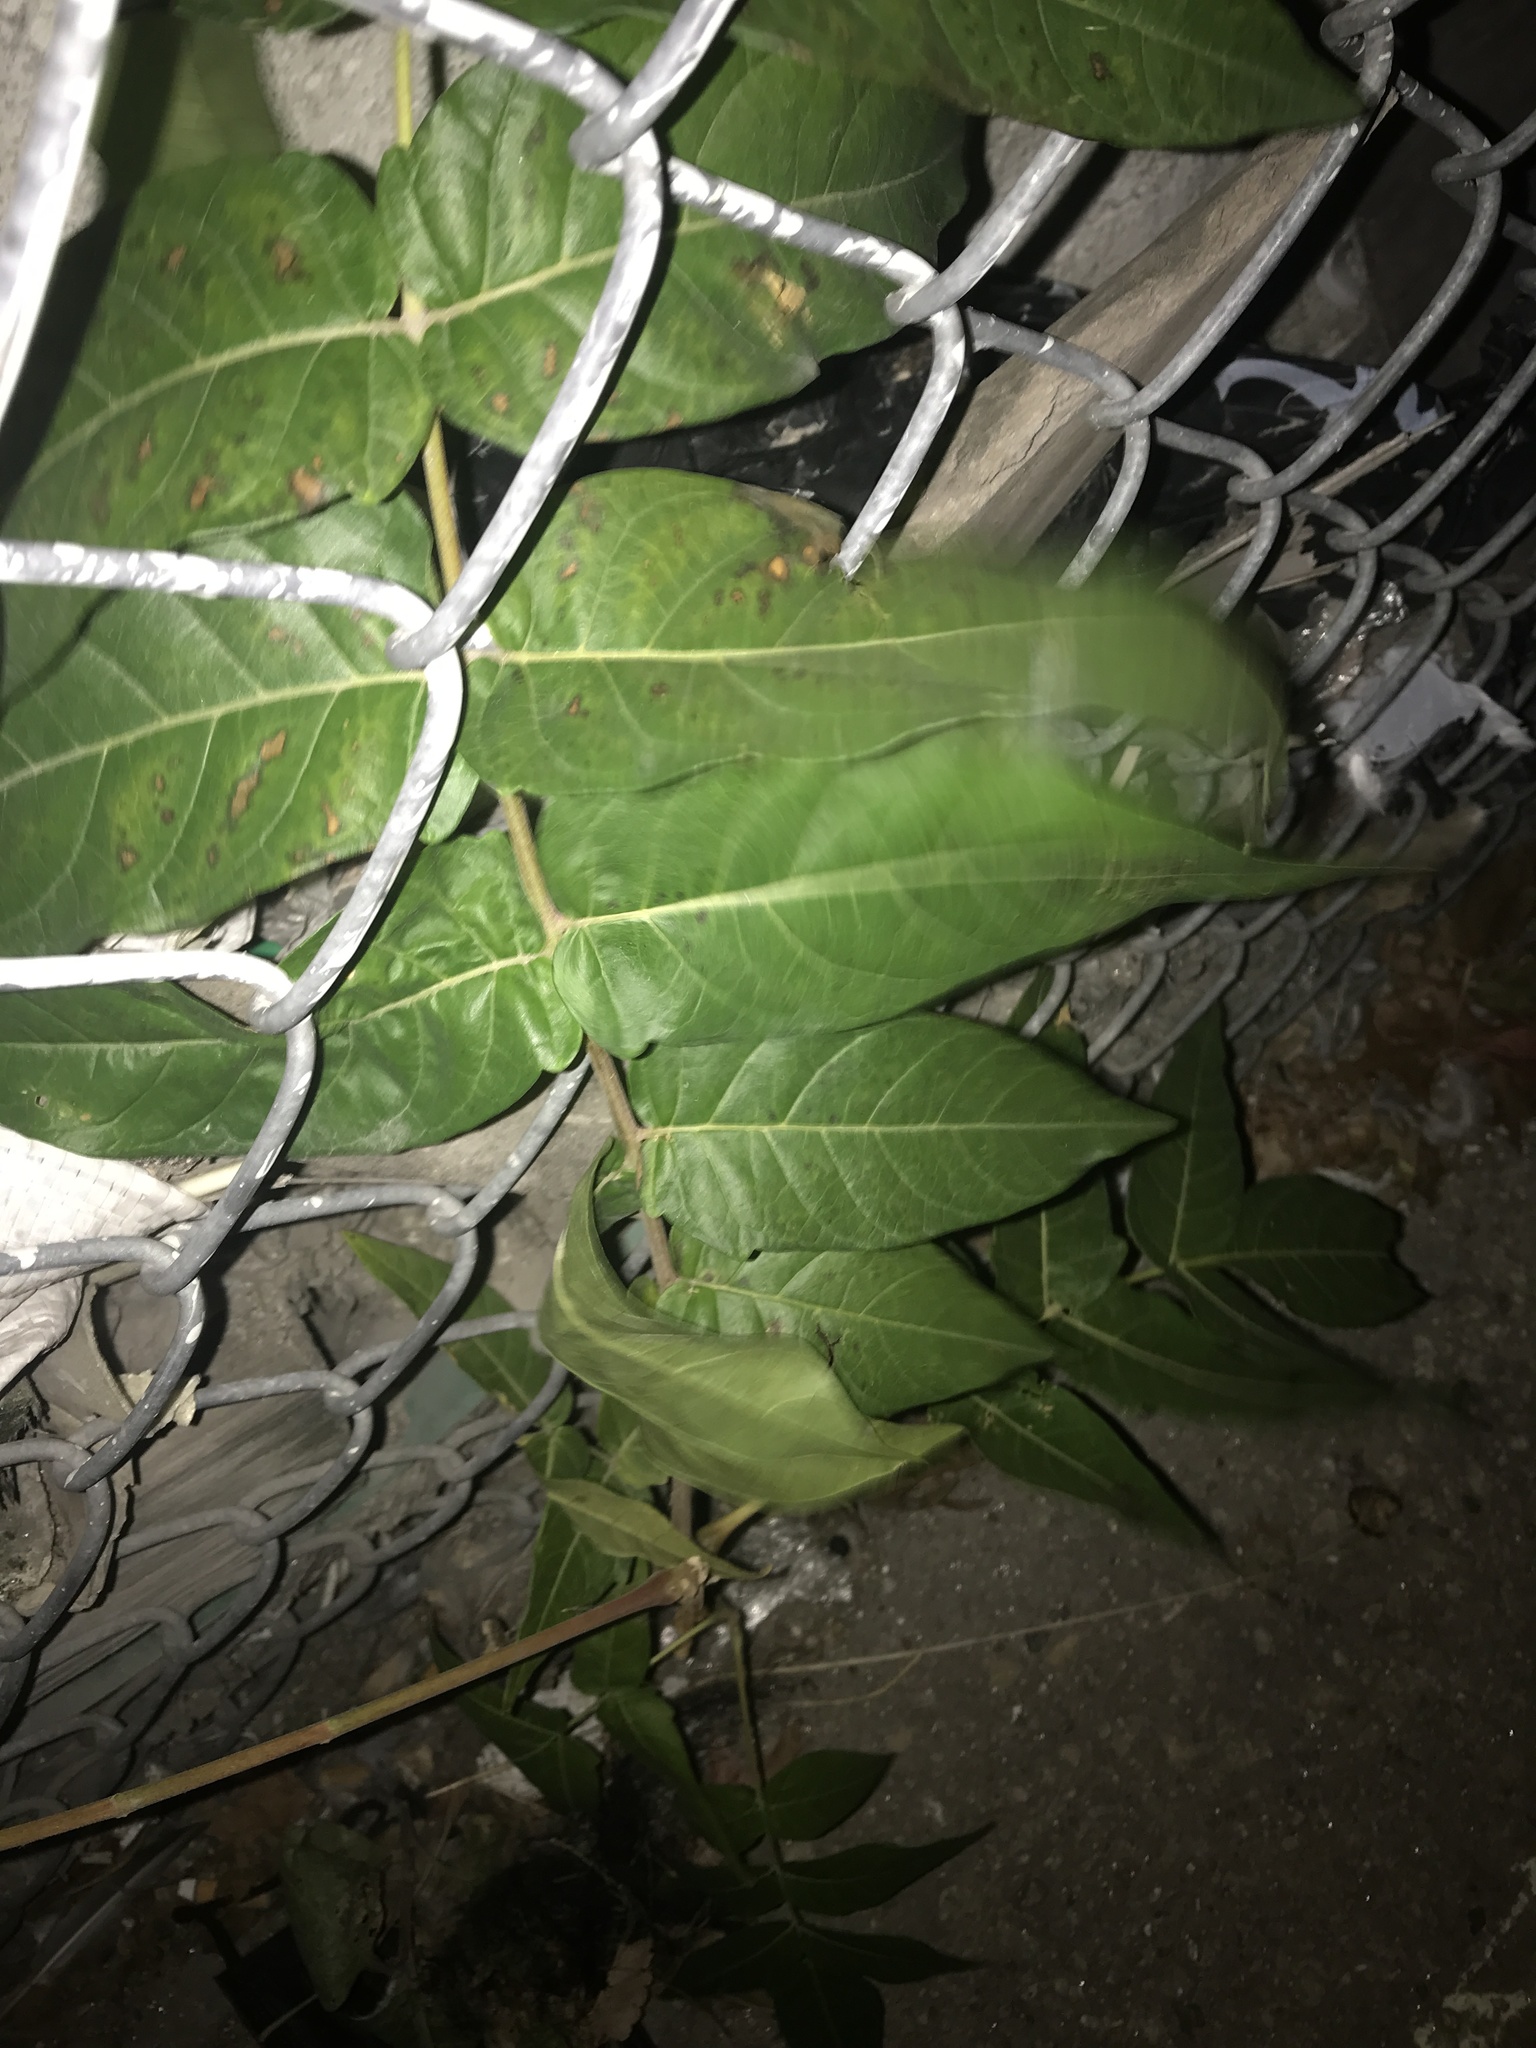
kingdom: Plantae
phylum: Tracheophyta
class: Magnoliopsida
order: Sapindales
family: Simaroubaceae
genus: Ailanthus
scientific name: Ailanthus altissima
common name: Tree-of-heaven
